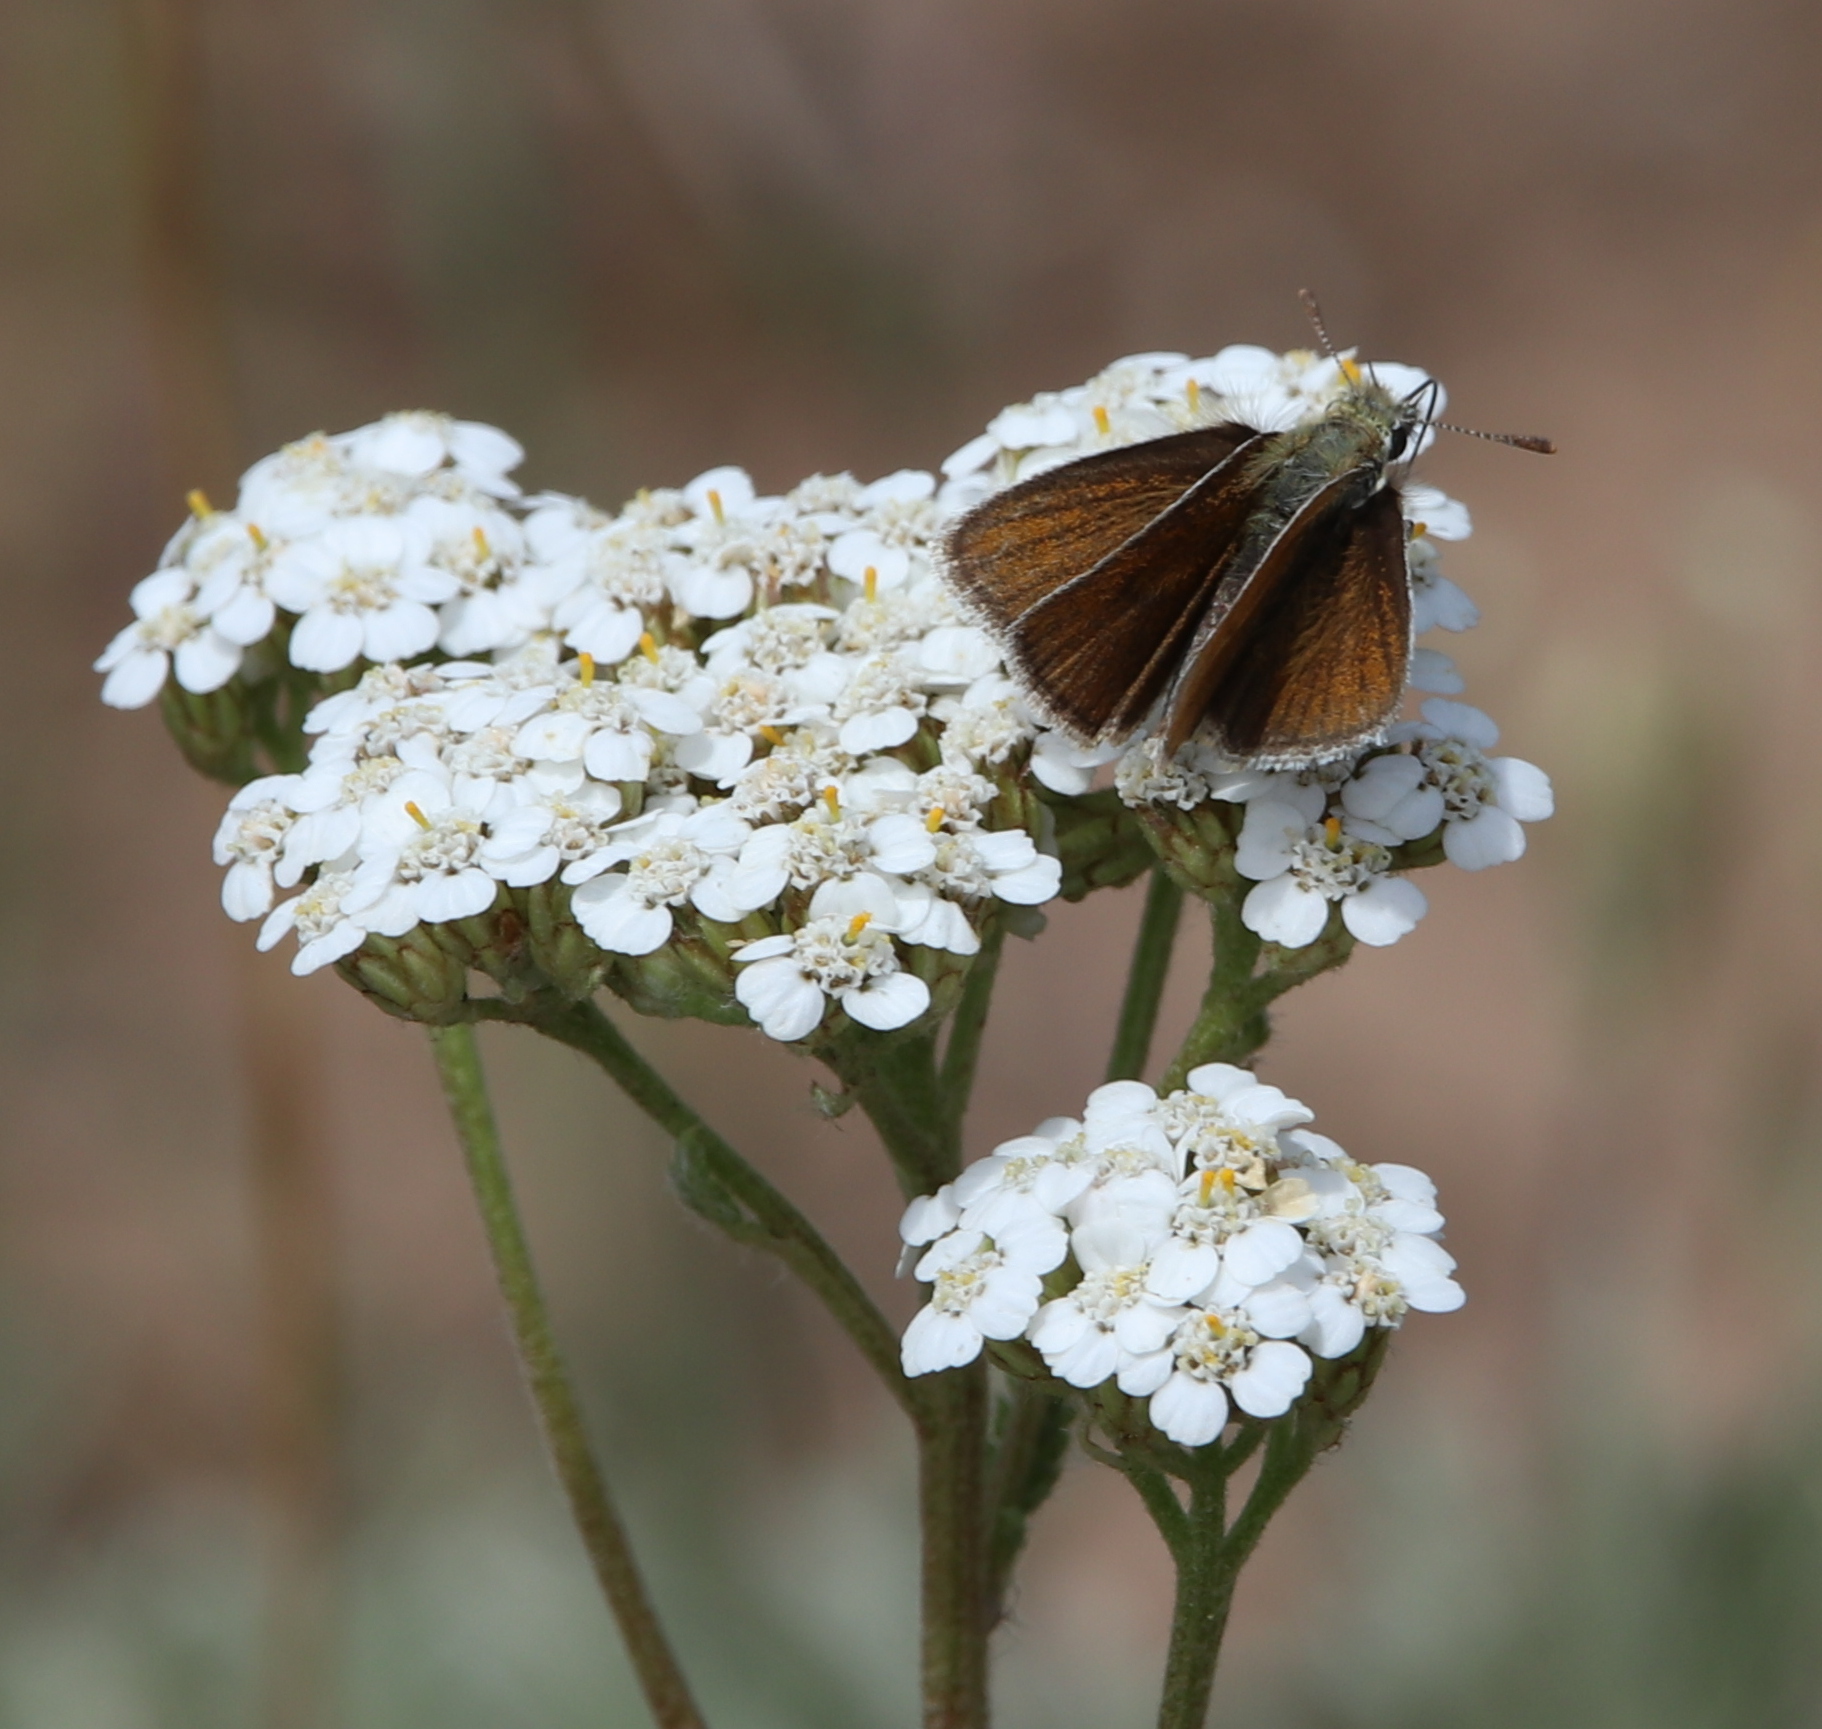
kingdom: Animalia
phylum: Arthropoda
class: Insecta
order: Lepidoptera
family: Hesperiidae
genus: Oarisma
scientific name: Oarisma garita
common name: Garita skipperling
